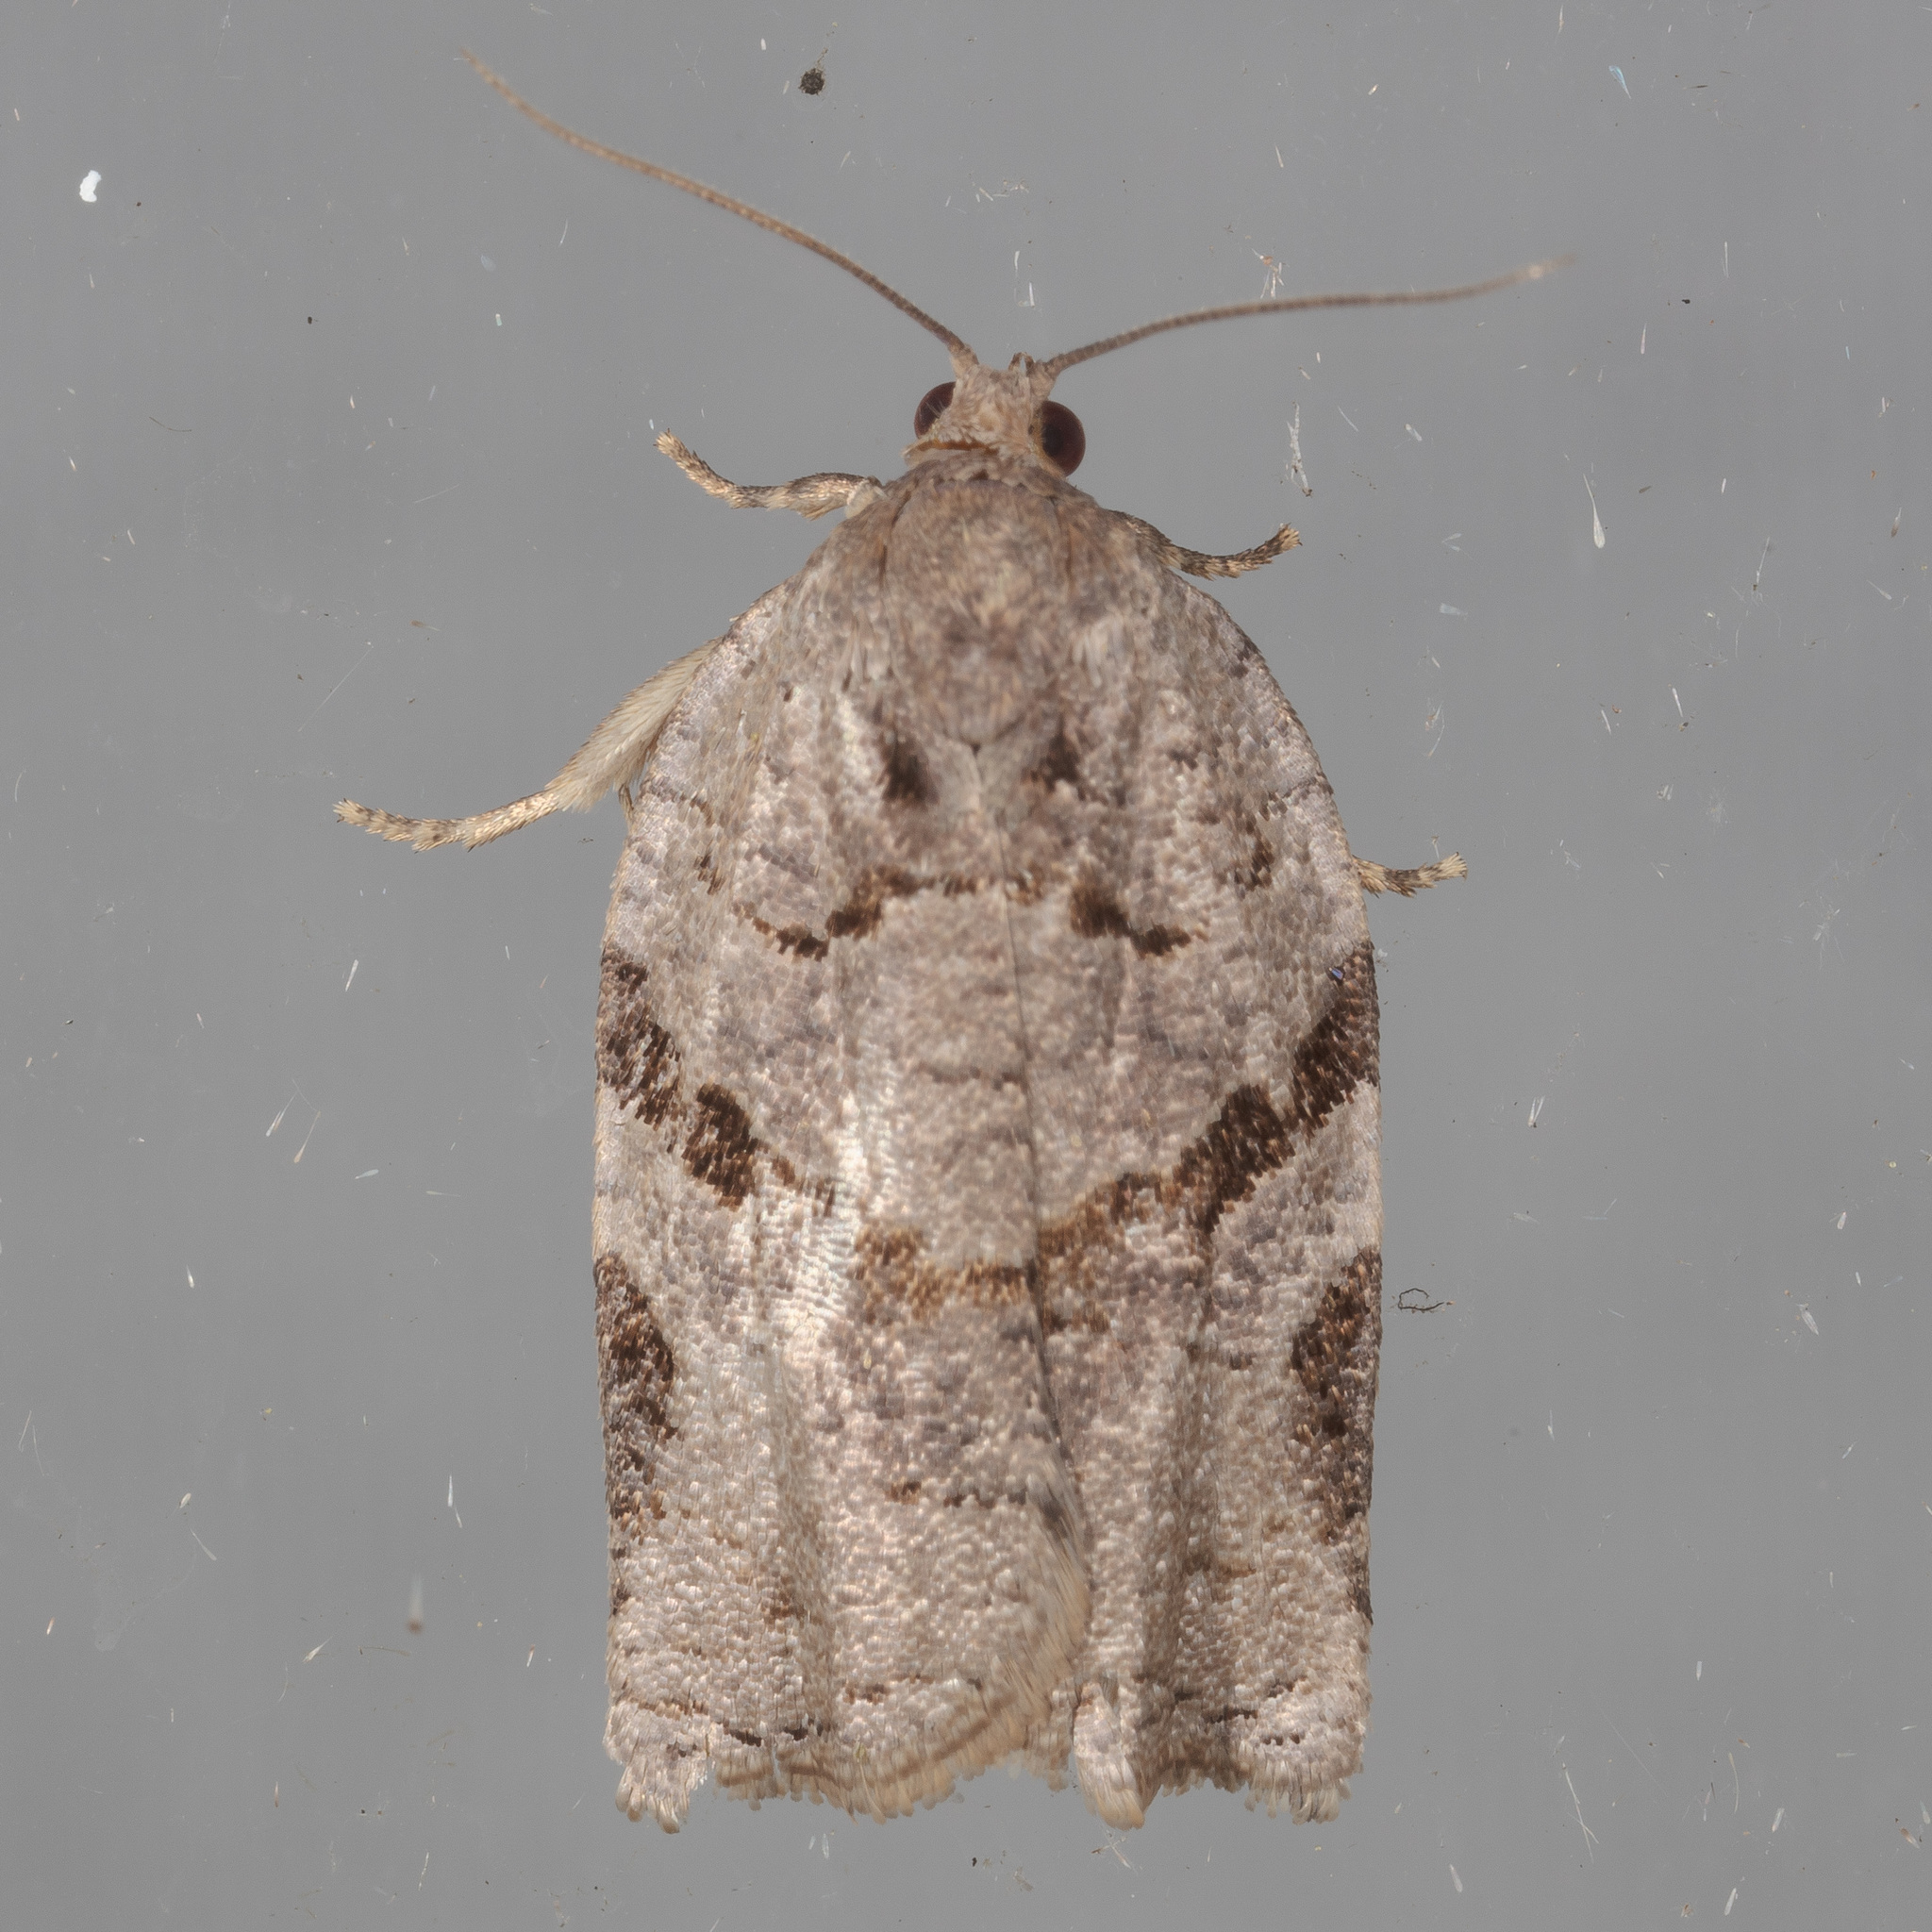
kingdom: Animalia
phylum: Arthropoda
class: Insecta
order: Lepidoptera
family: Tortricidae
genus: Archips
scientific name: Archips grisea
